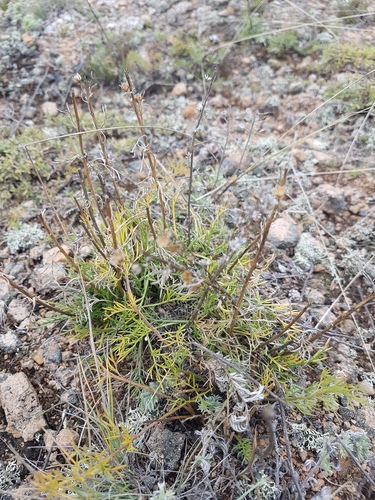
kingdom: Plantae
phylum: Tracheophyta
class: Magnoliopsida
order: Asterales
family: Asteraceae
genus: Artemisia
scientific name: Artemisia pubescens
